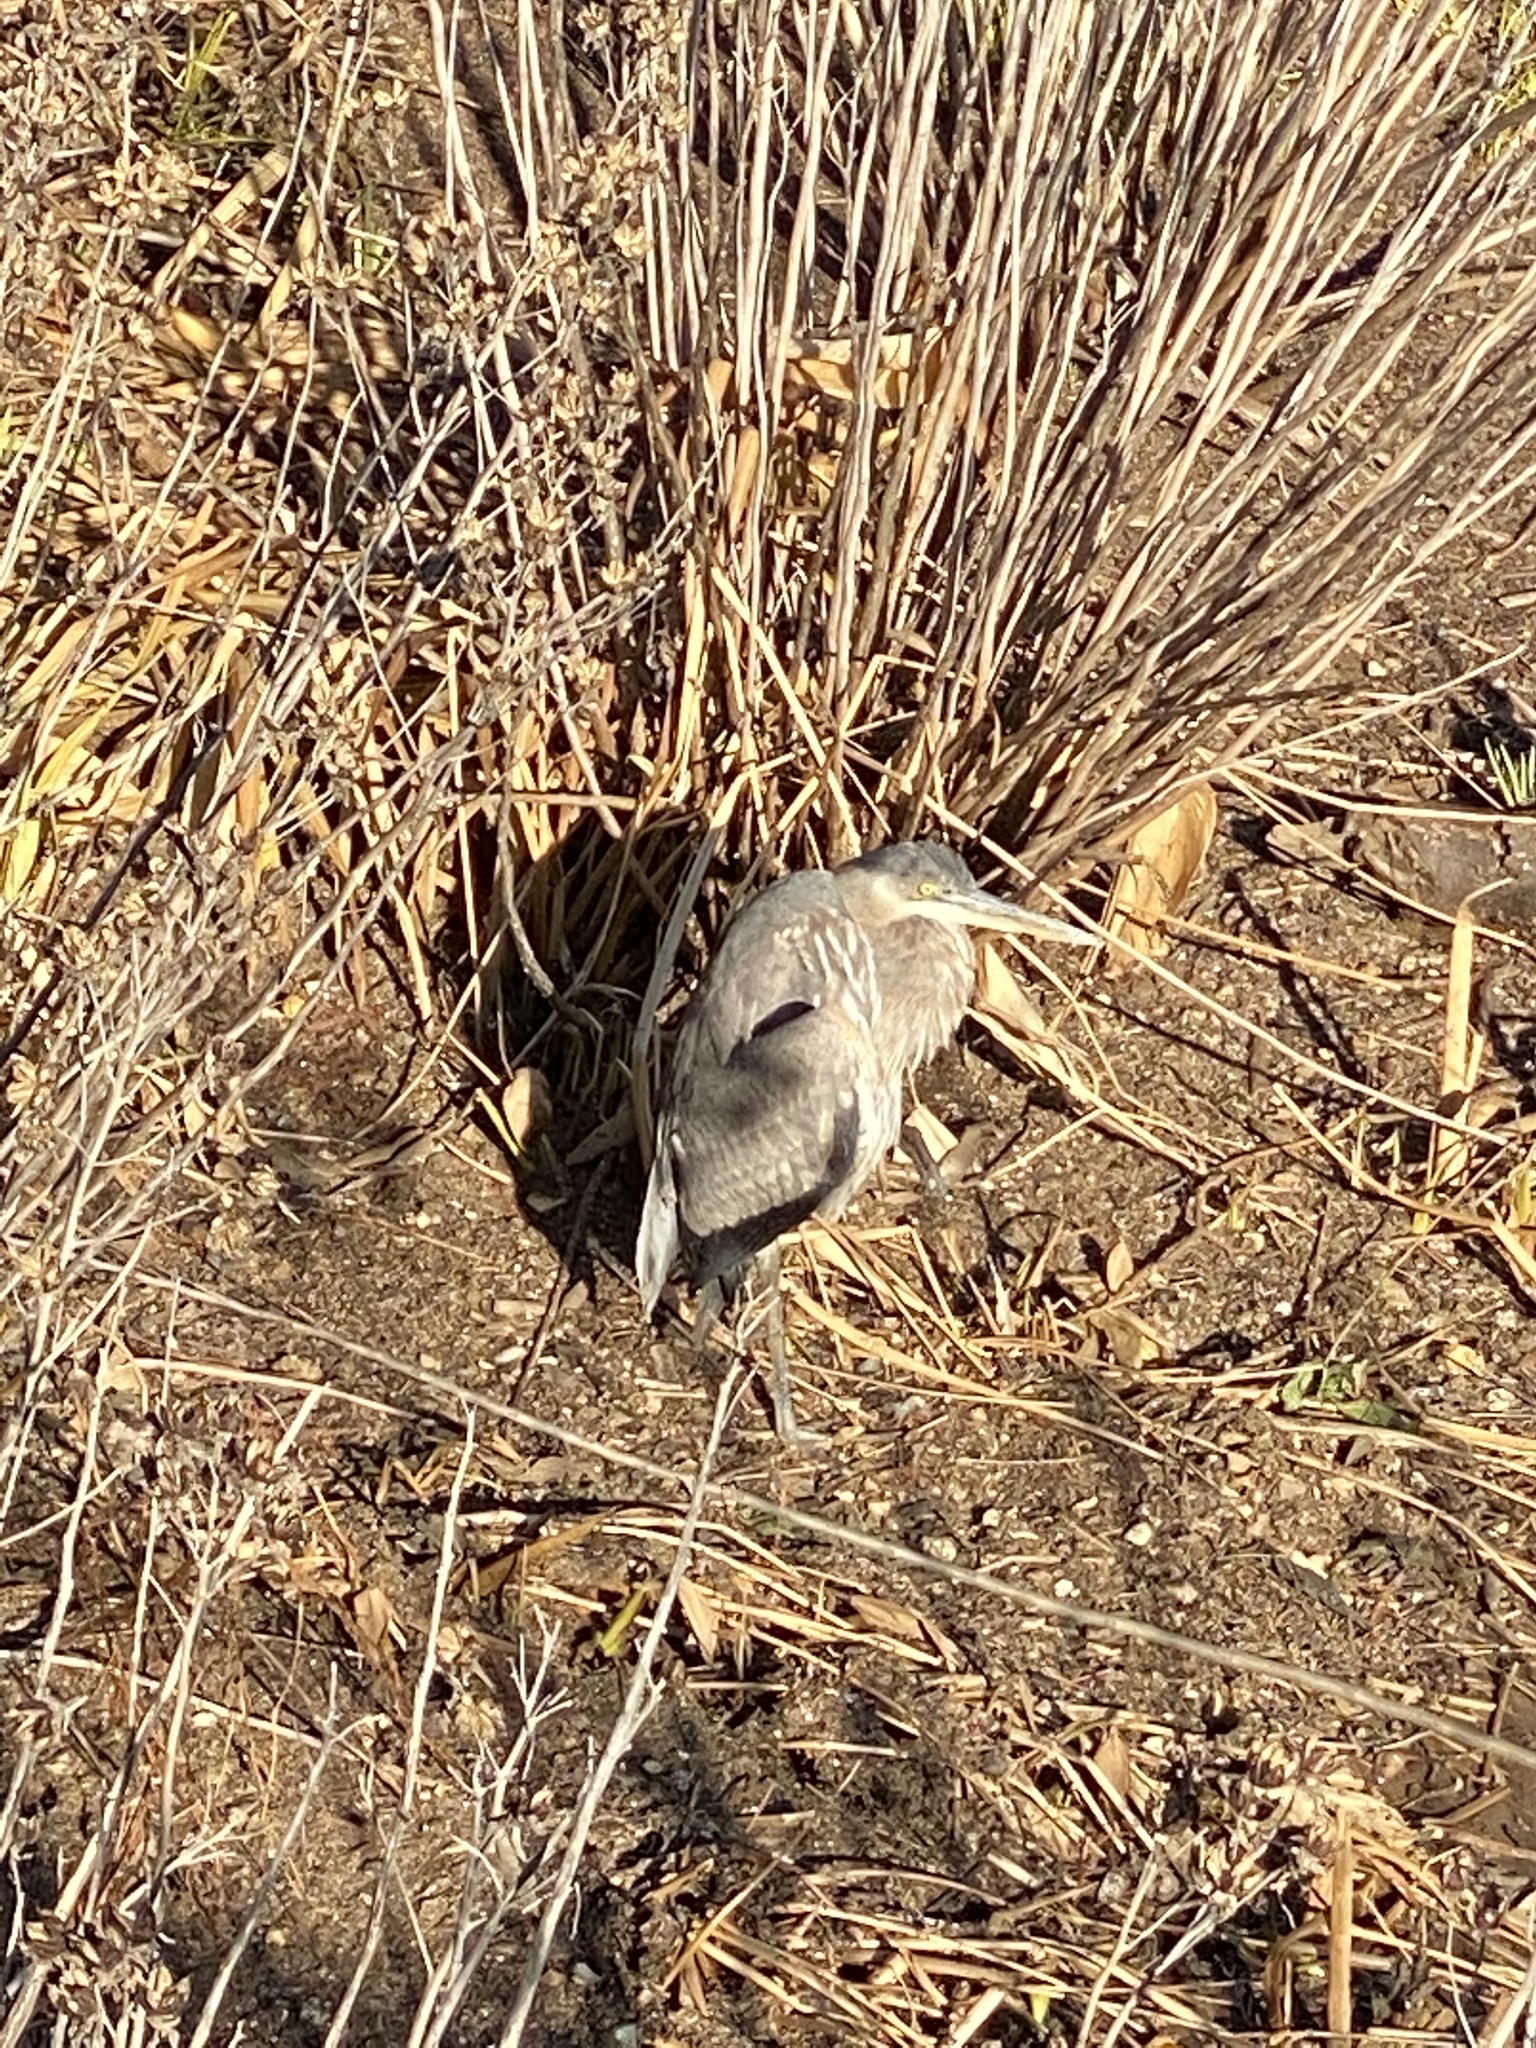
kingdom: Animalia
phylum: Chordata
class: Aves
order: Pelecaniformes
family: Ardeidae
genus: Ardea
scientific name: Ardea herodias
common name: Great blue heron
